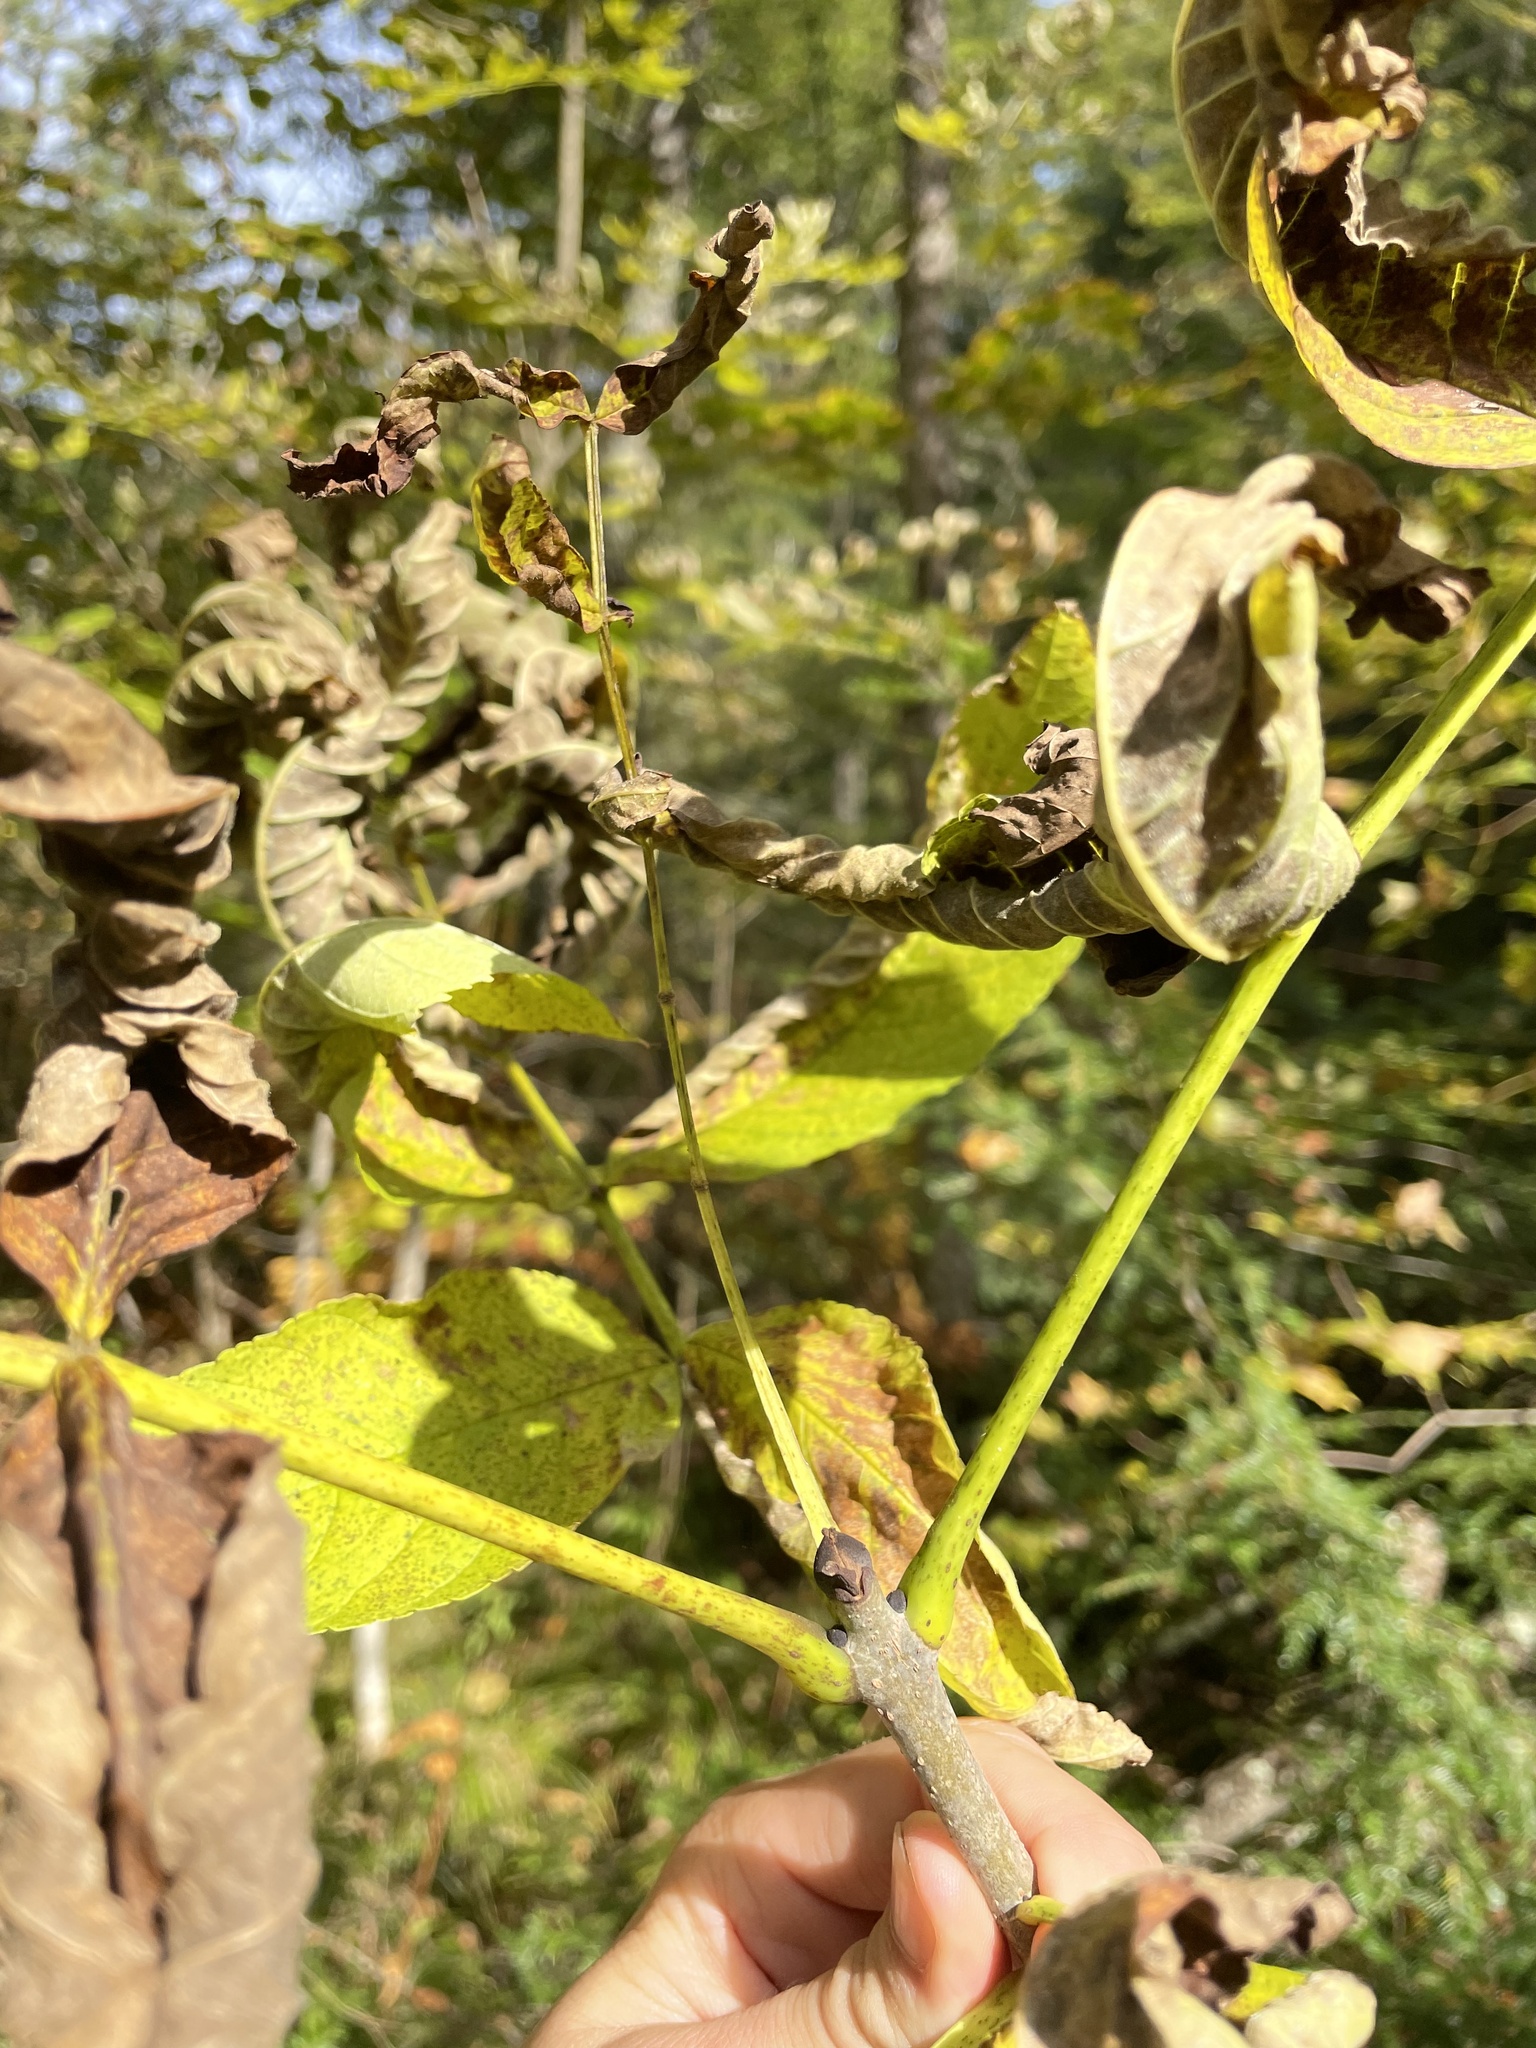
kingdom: Plantae
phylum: Tracheophyta
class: Magnoliopsida
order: Lamiales
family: Oleaceae
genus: Fraxinus
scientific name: Fraxinus nigra
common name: Black ash
